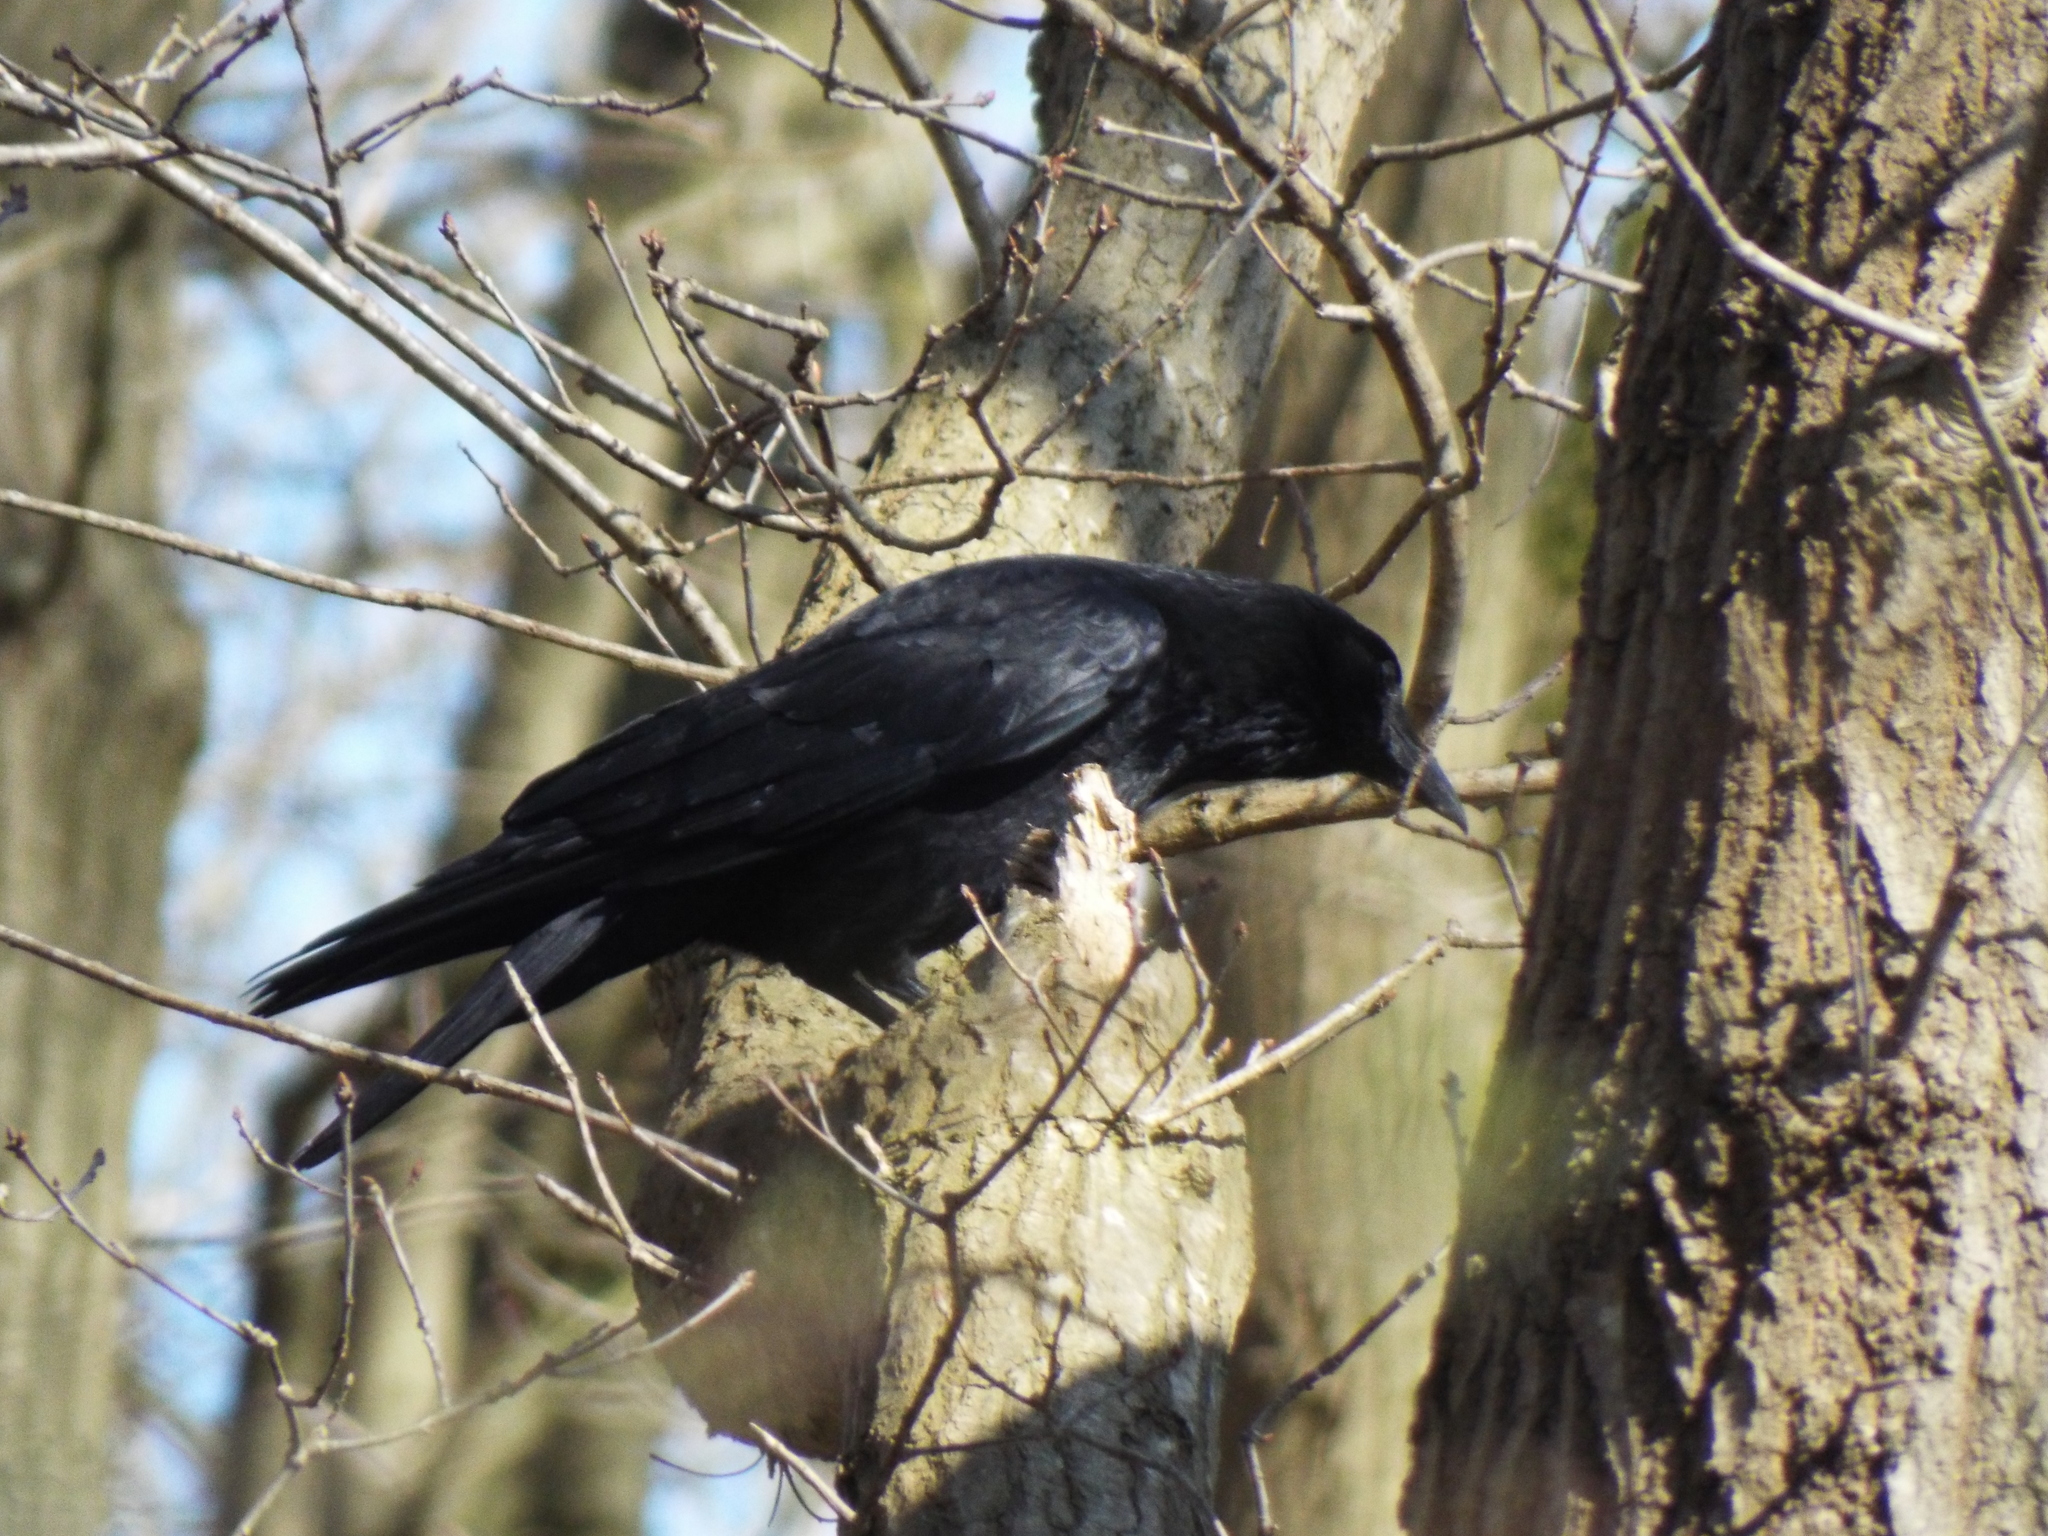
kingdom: Animalia
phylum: Chordata
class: Aves
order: Passeriformes
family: Corvidae
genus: Corvus
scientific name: Corvus corone
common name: Carrion crow
